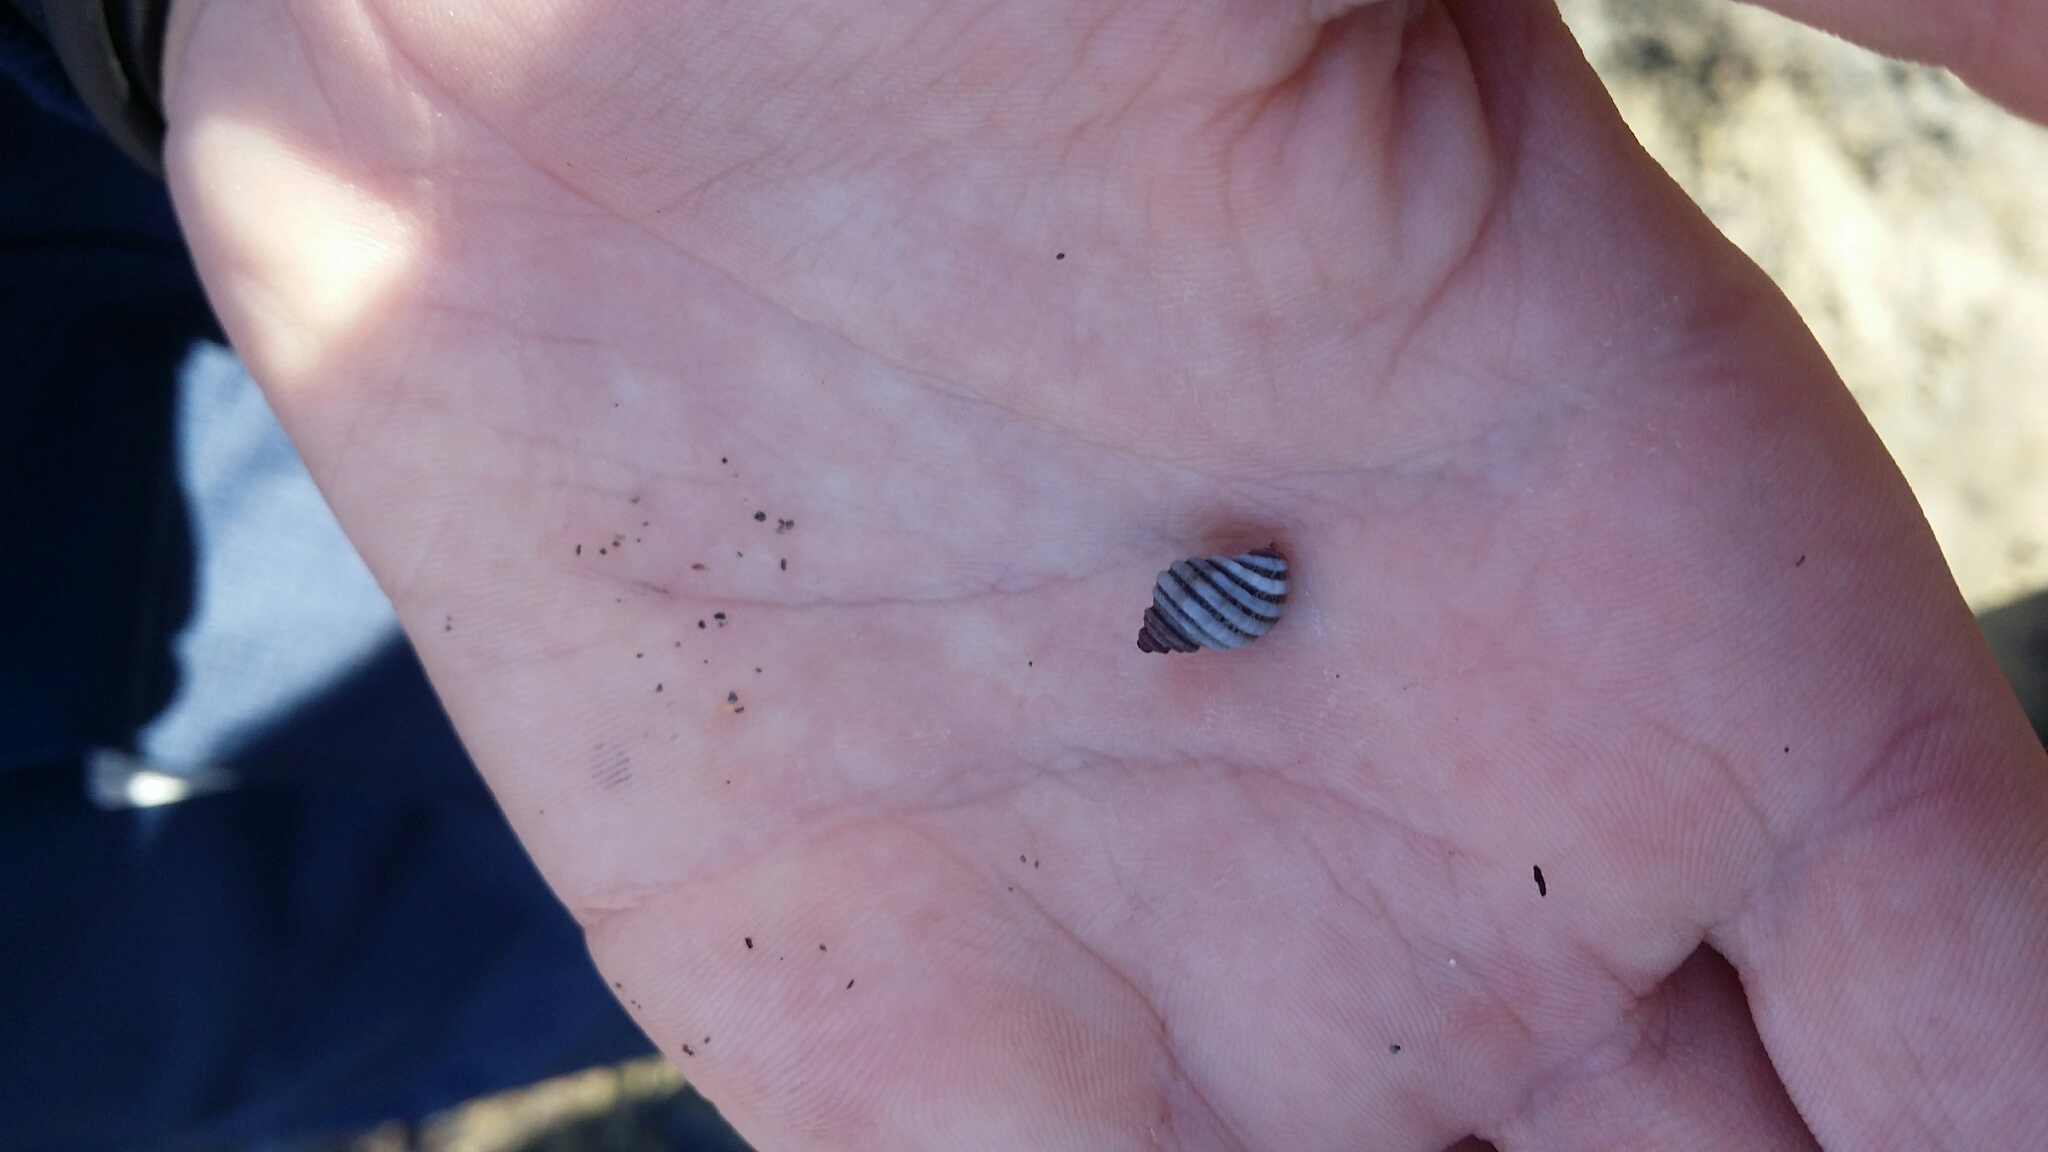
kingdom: Animalia
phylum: Mollusca
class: Gastropoda
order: Neogastropoda
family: Muricidae
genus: Paratrophon
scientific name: Paratrophon cheesemani
